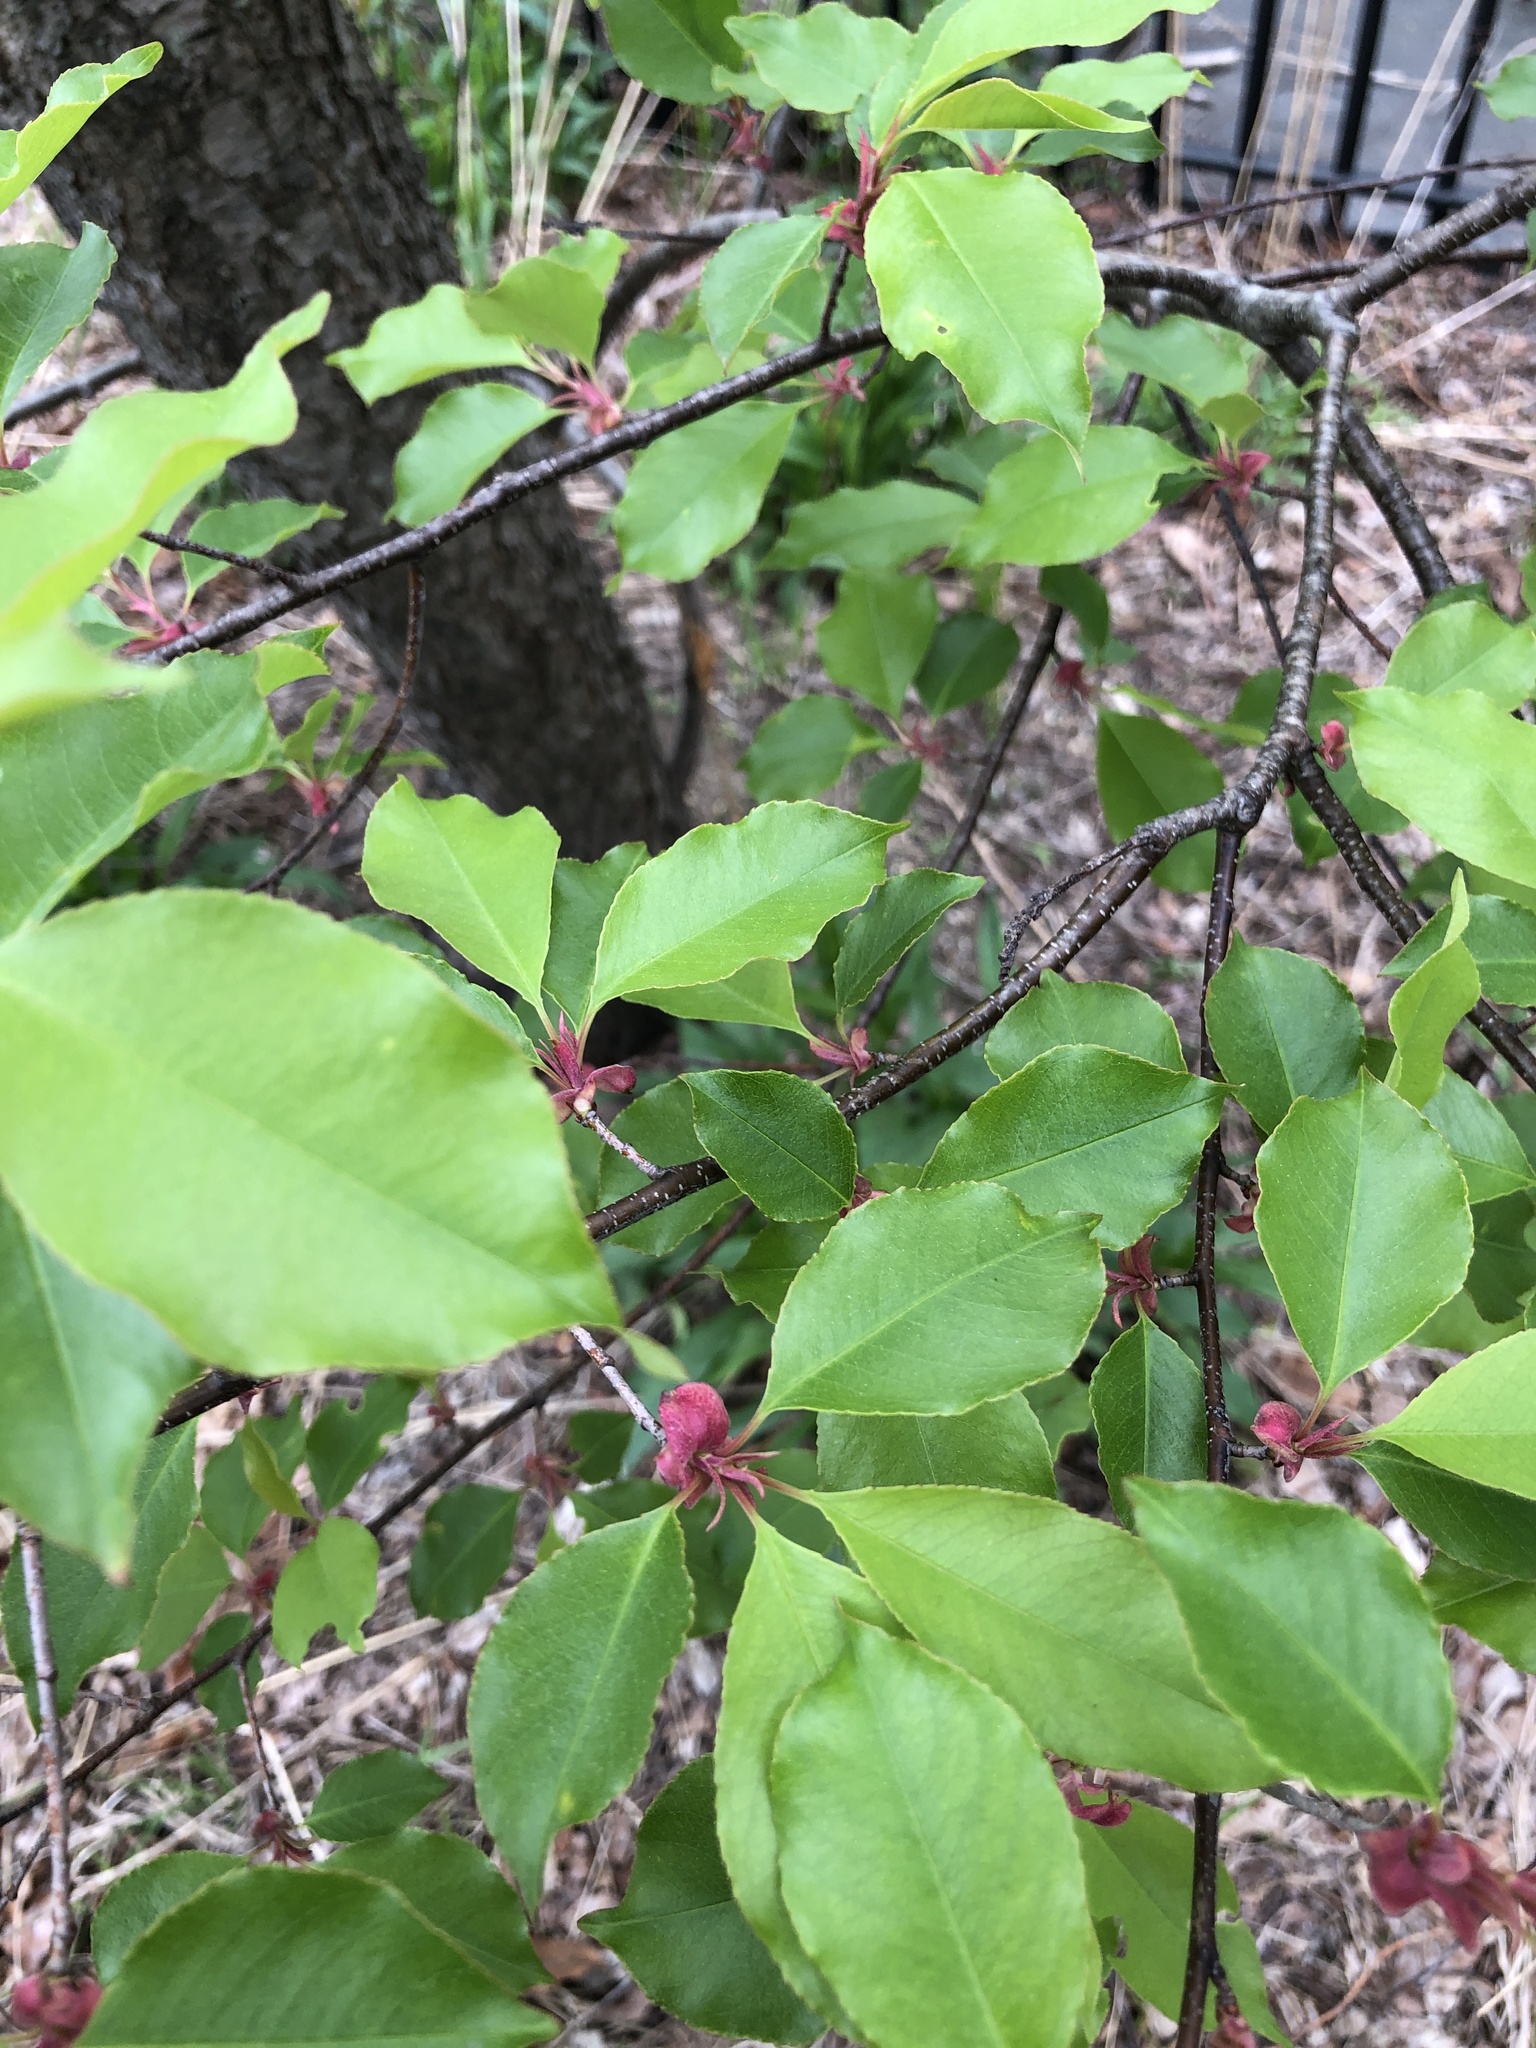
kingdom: Plantae
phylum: Tracheophyta
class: Magnoliopsida
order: Rosales
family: Rosaceae
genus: Prunus
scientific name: Prunus serotina
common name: Black cherry
